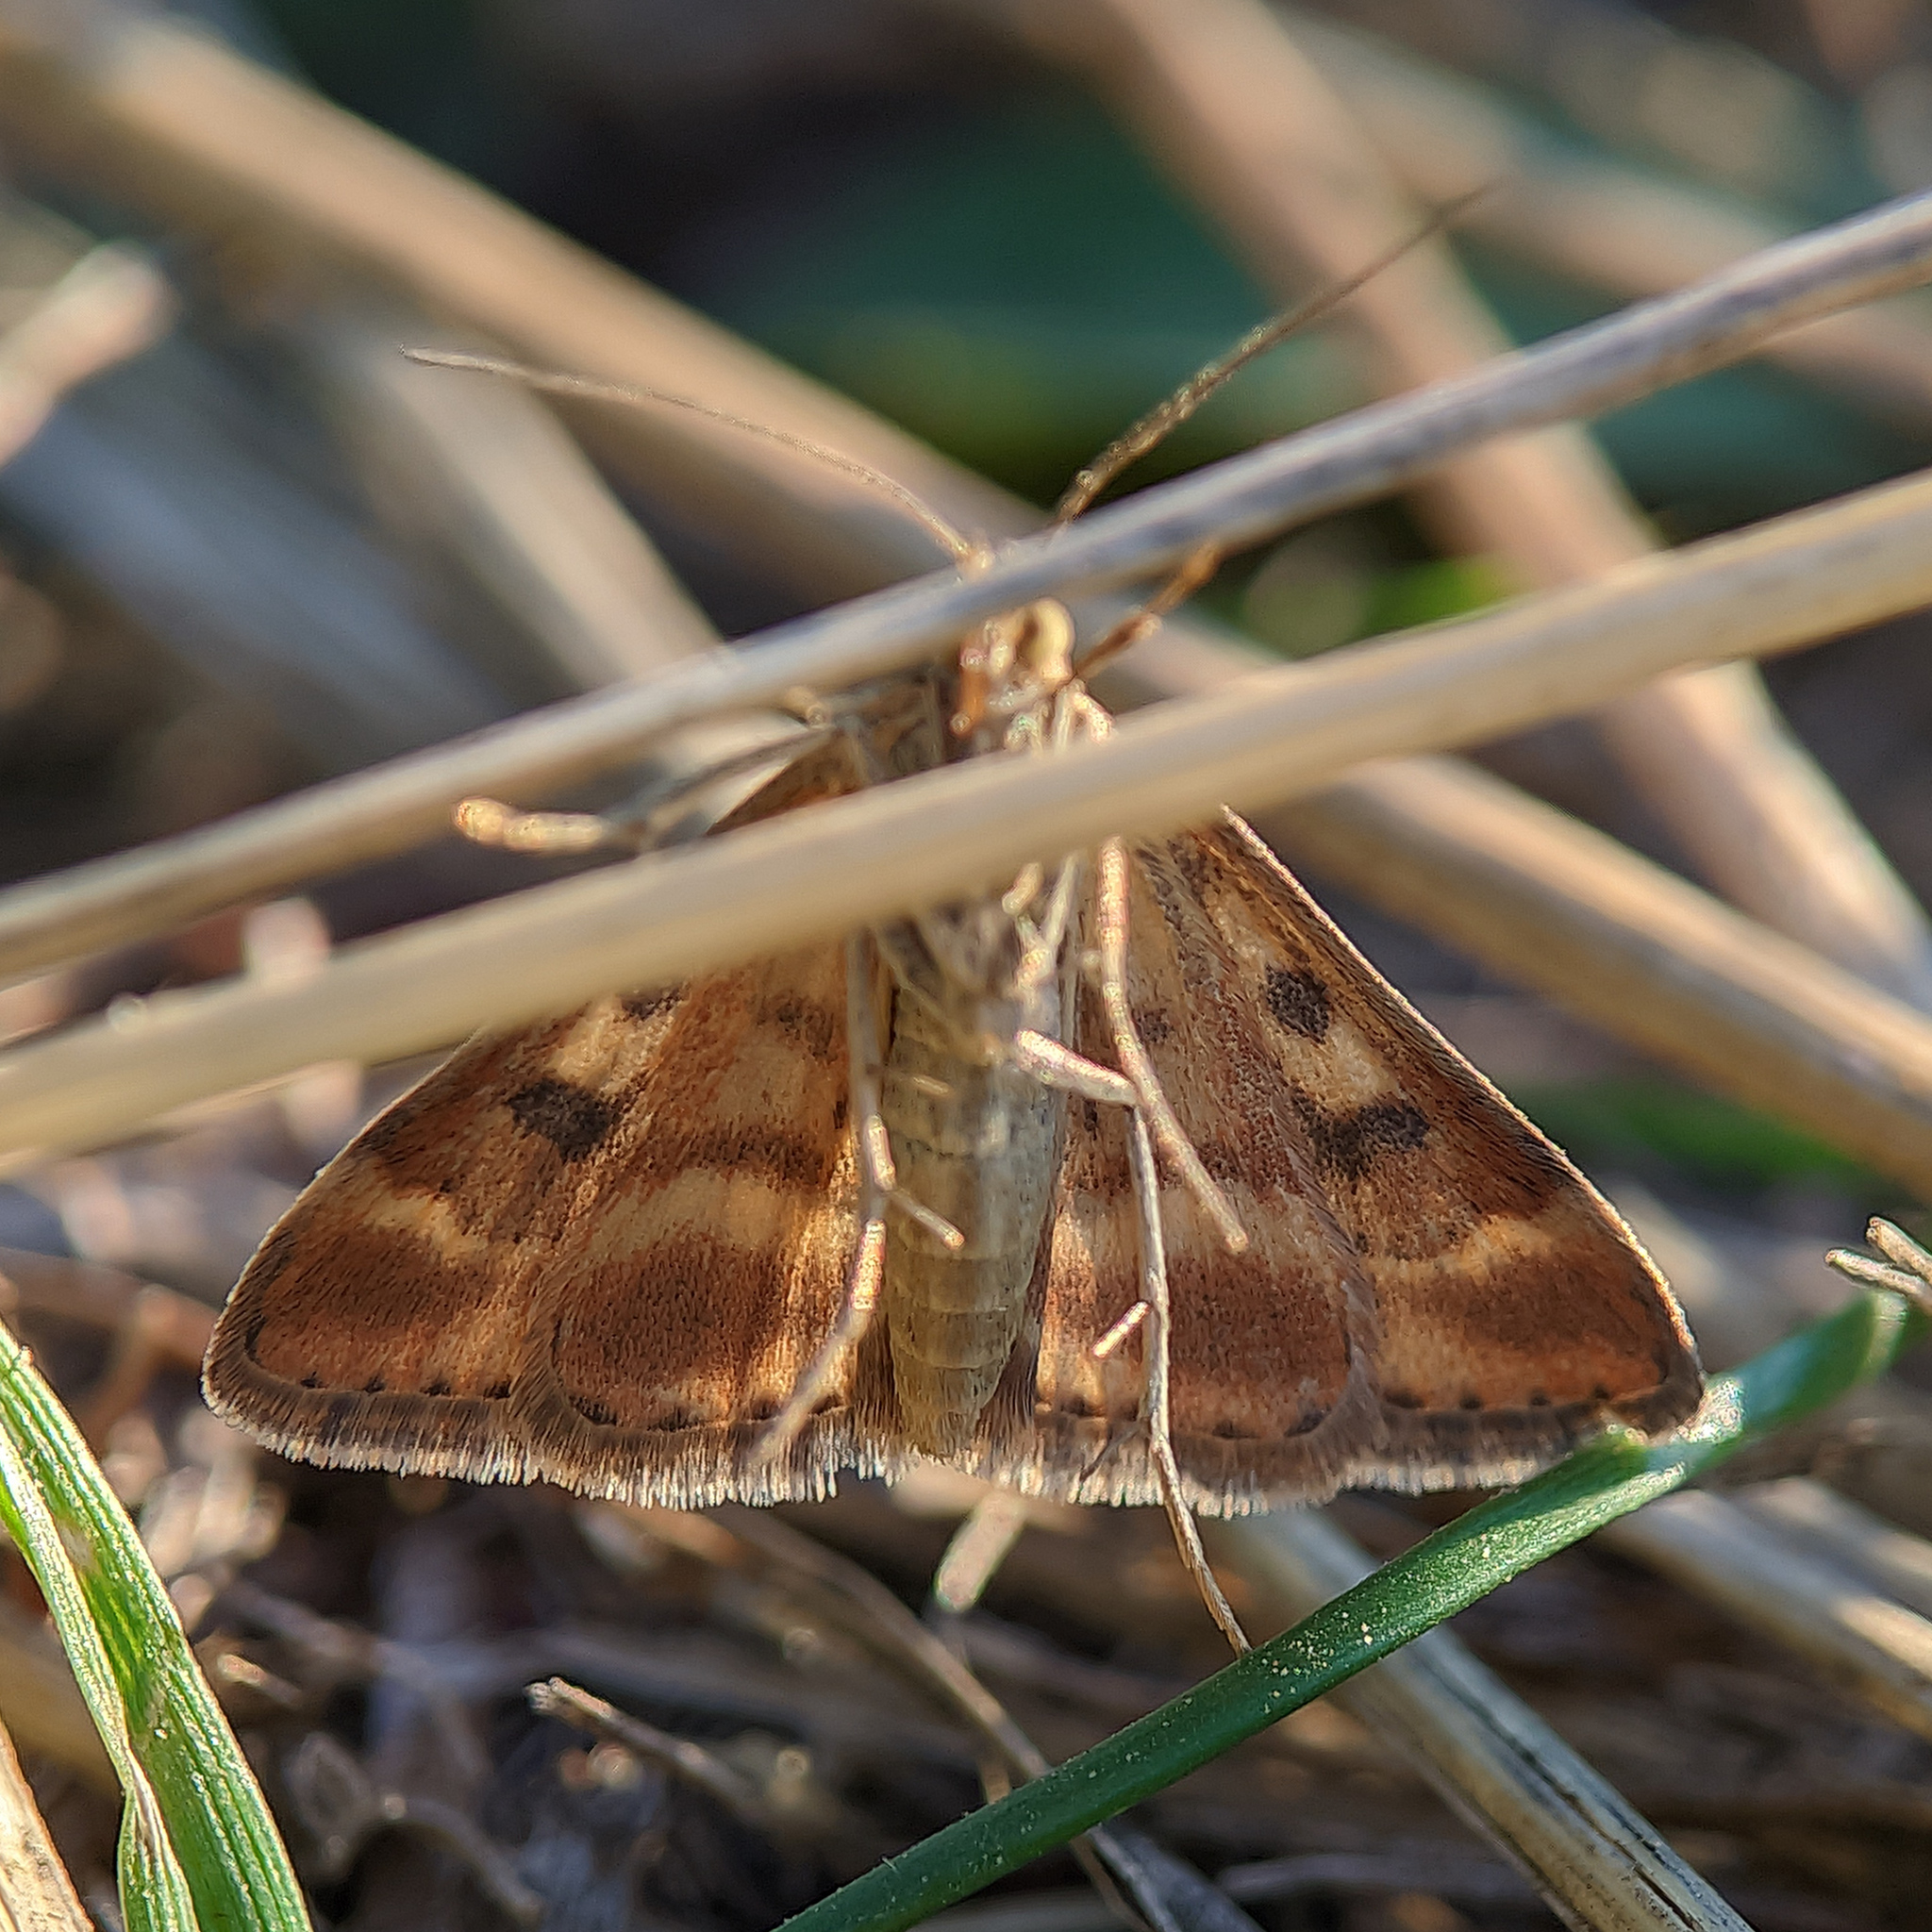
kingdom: Animalia
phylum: Arthropoda
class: Insecta
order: Lepidoptera
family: Crambidae
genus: Pyrausta
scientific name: Pyrausta despicata
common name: Straw-barred pearl
